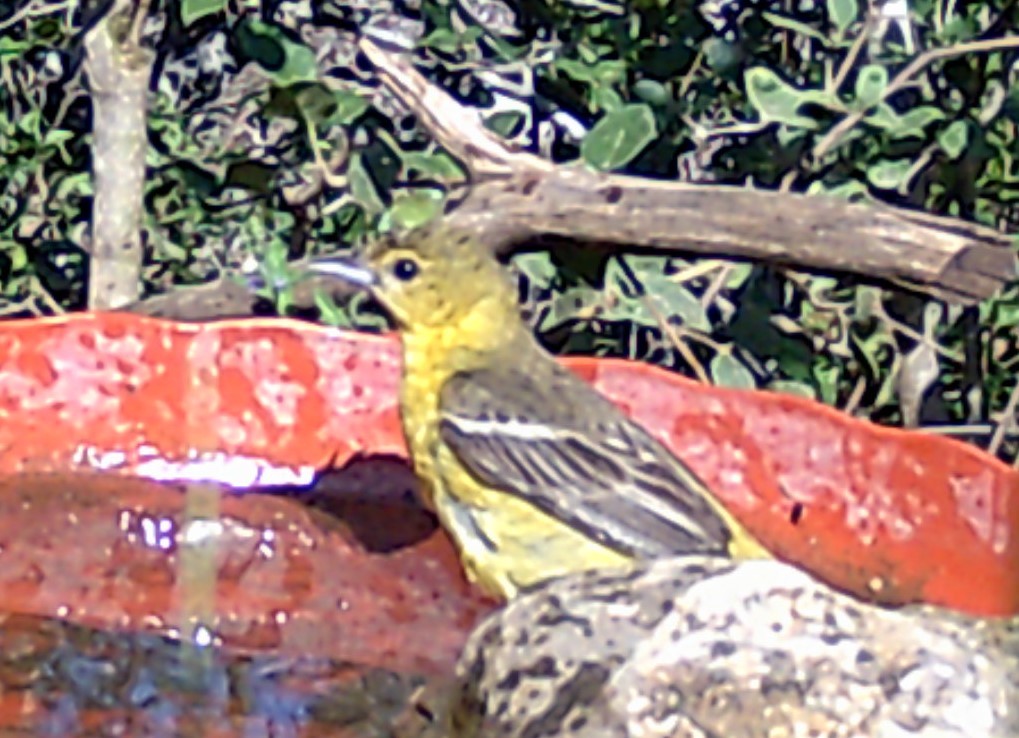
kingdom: Animalia
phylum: Chordata
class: Aves
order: Passeriformes
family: Icteridae
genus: Icterus
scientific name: Icterus spurius
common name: Orchard oriole
